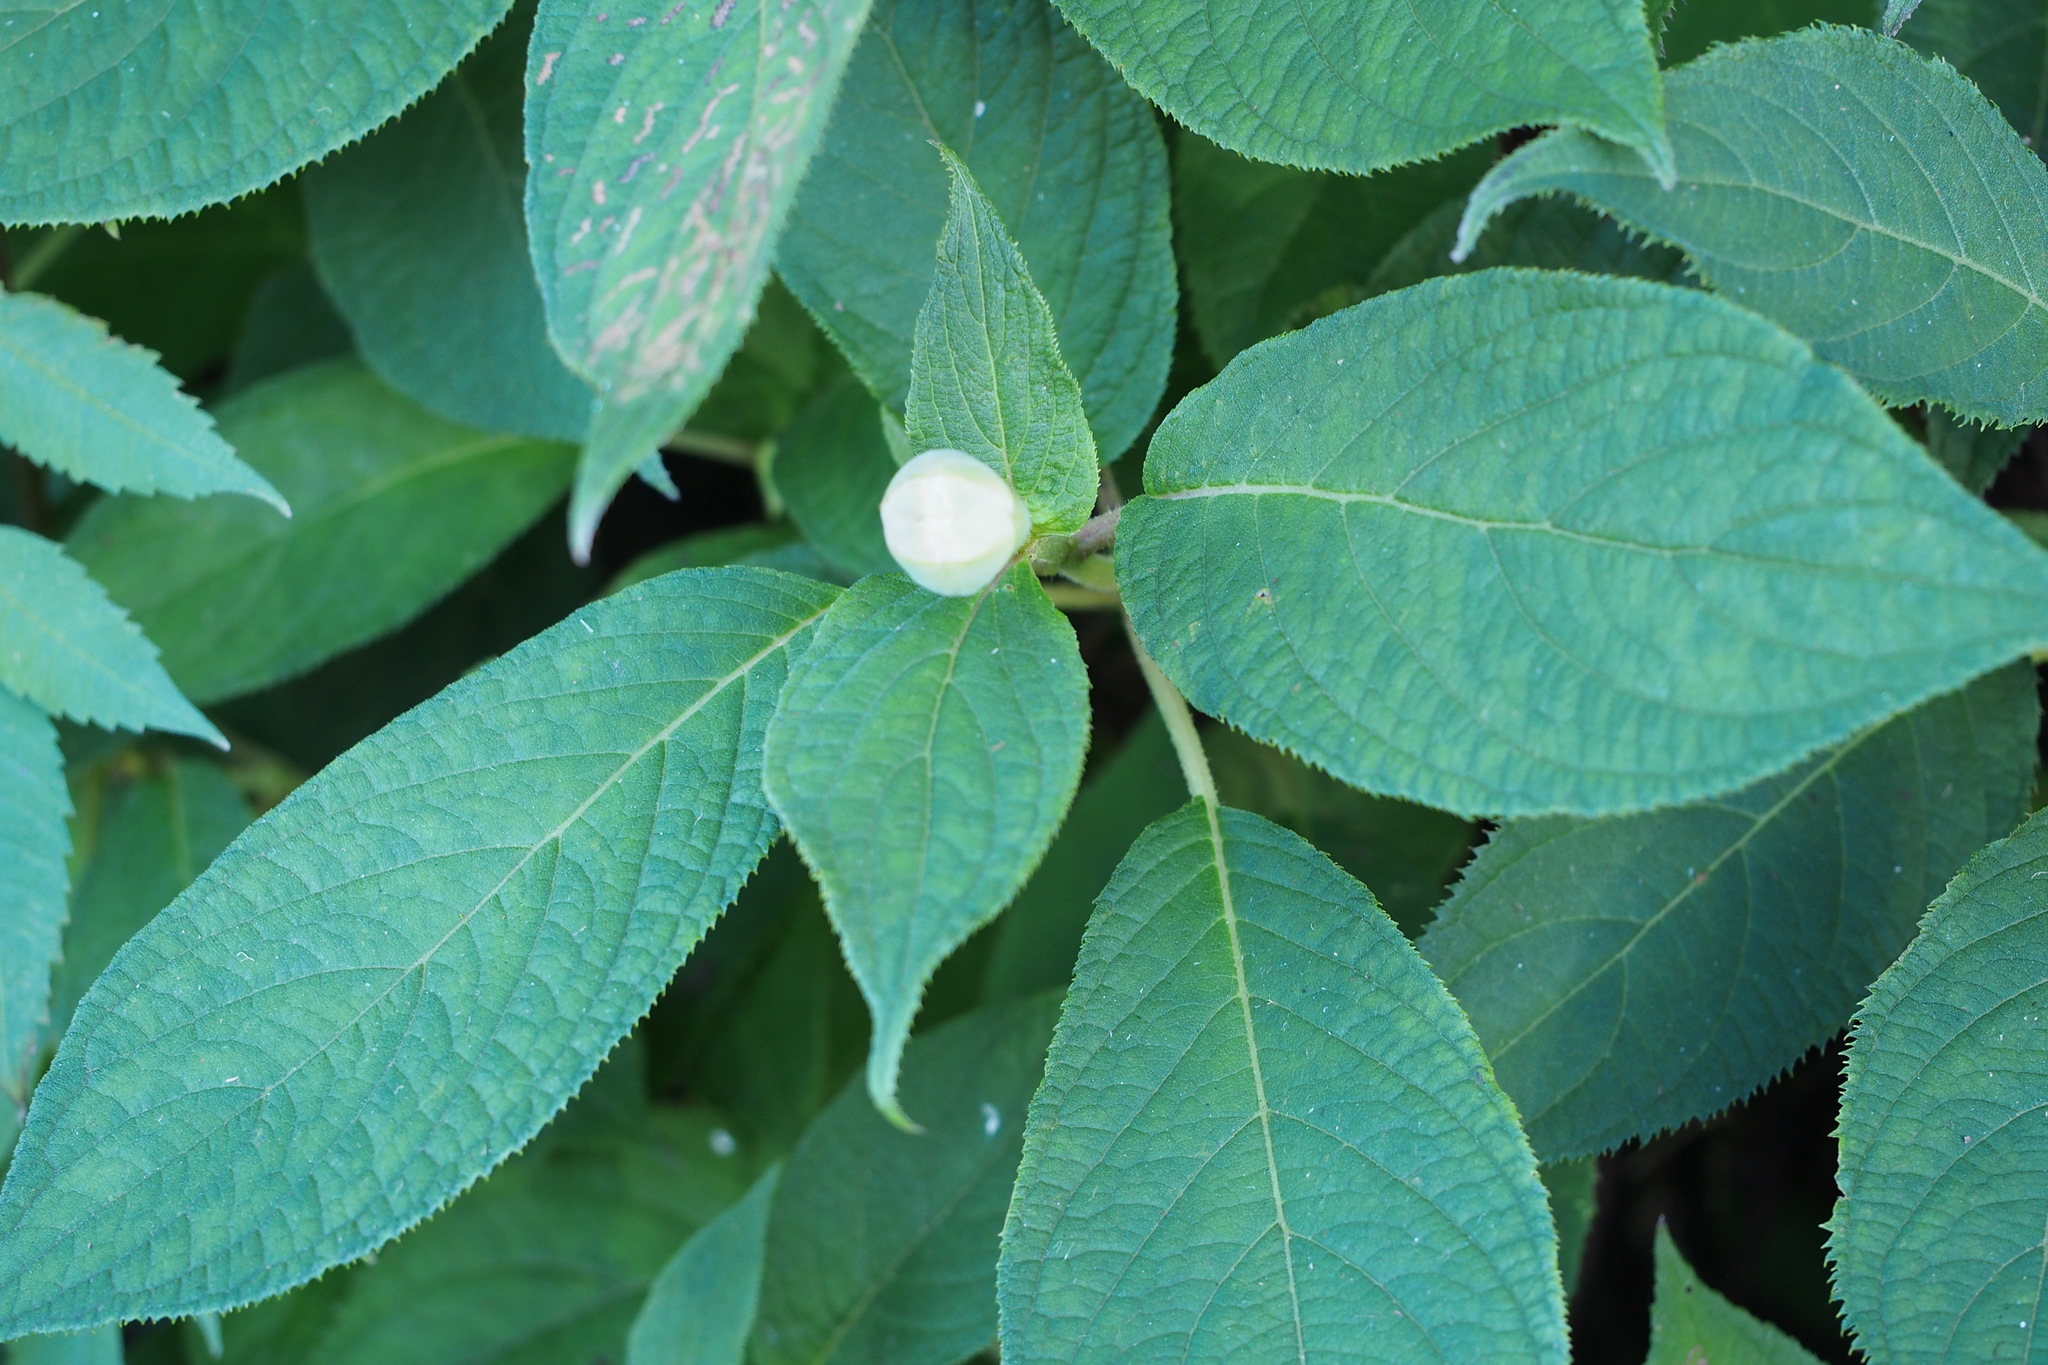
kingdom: Plantae
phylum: Tracheophyta
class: Magnoliopsida
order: Cornales
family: Hydrangeaceae
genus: Hydrangea
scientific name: Hydrangea involucrata
